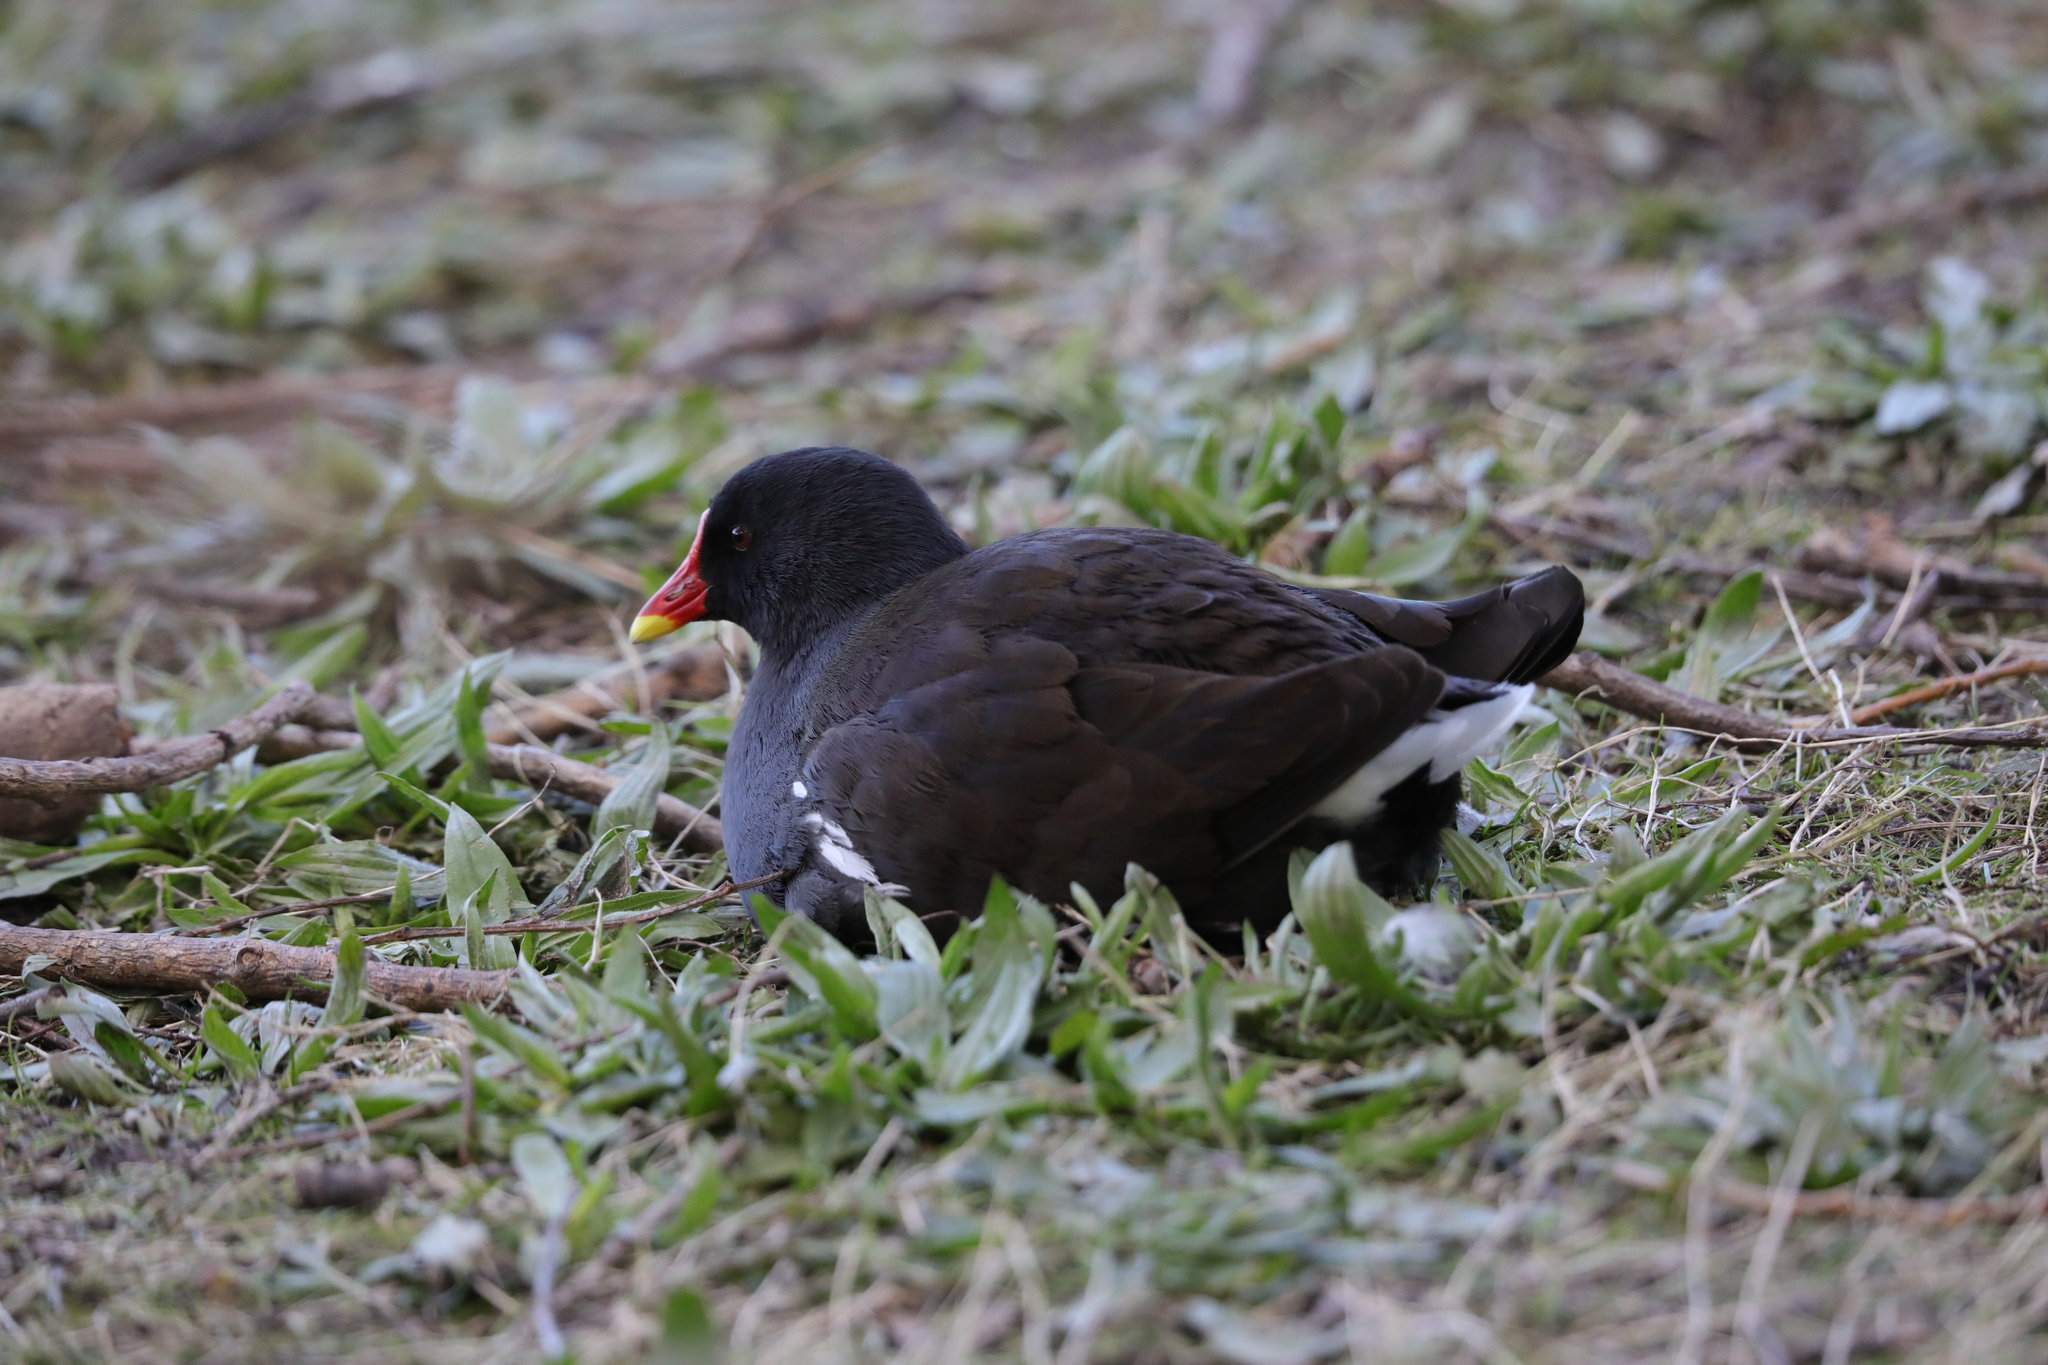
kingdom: Animalia
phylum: Chordata
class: Aves
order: Gruiformes
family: Rallidae
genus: Gallinula
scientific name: Gallinula chloropus
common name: Common moorhen
